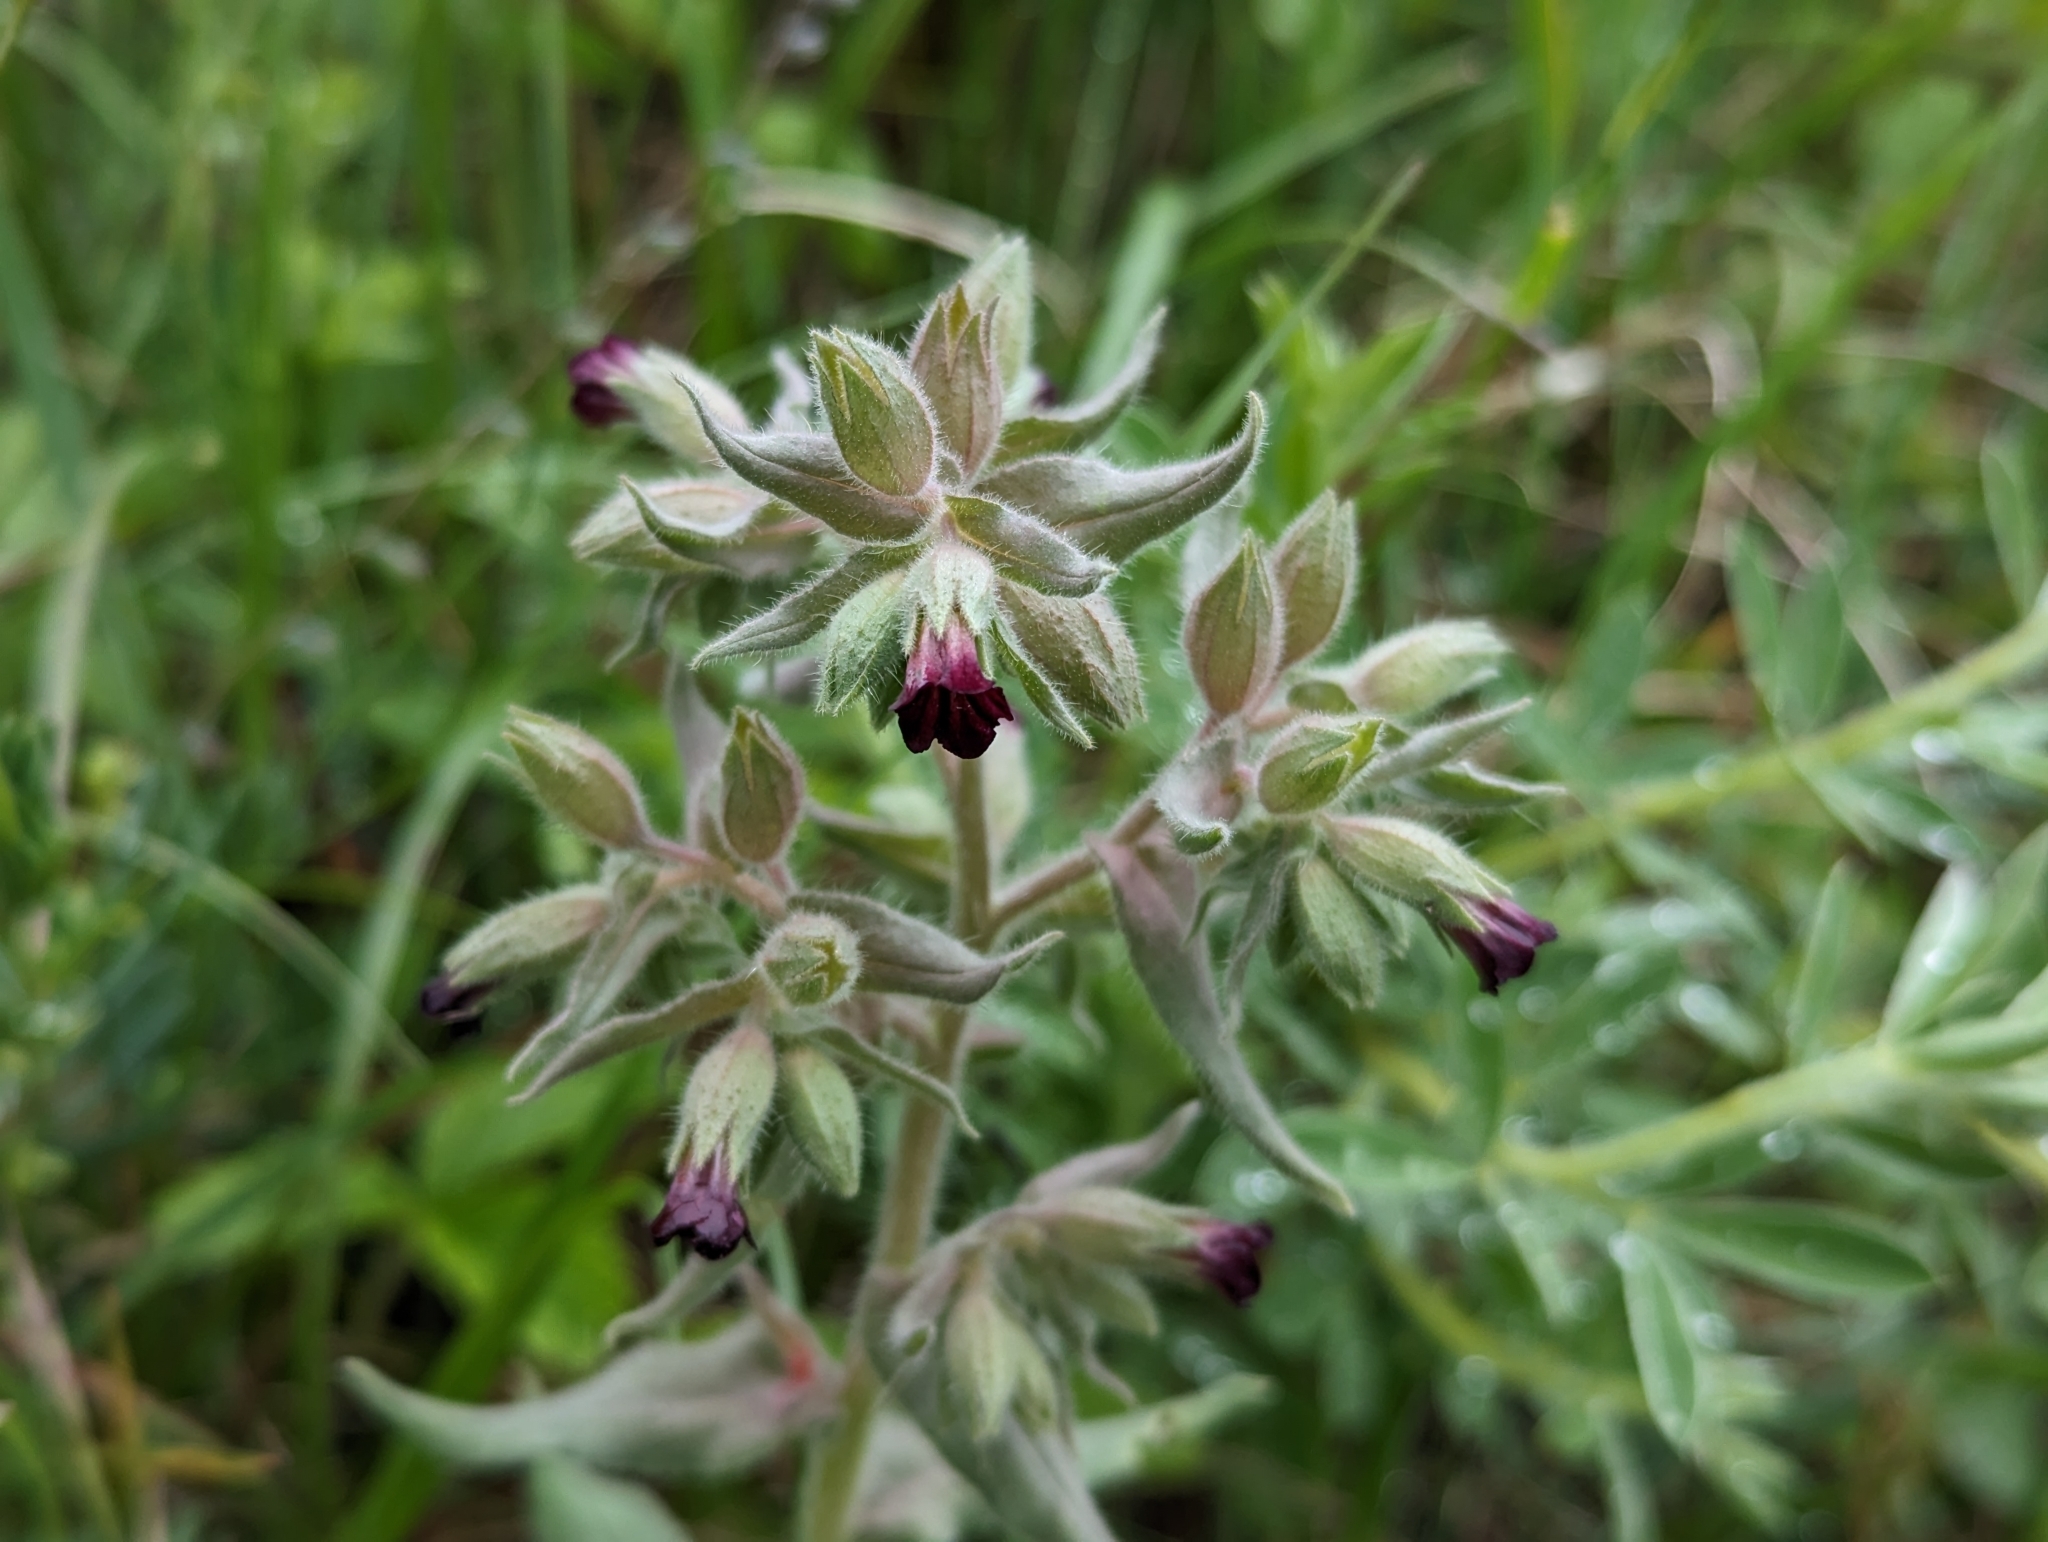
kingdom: Plantae
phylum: Tracheophyta
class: Magnoliopsida
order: Boraginales
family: Boraginaceae
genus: Nonea
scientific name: Nonea pulla
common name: Brown nonea
